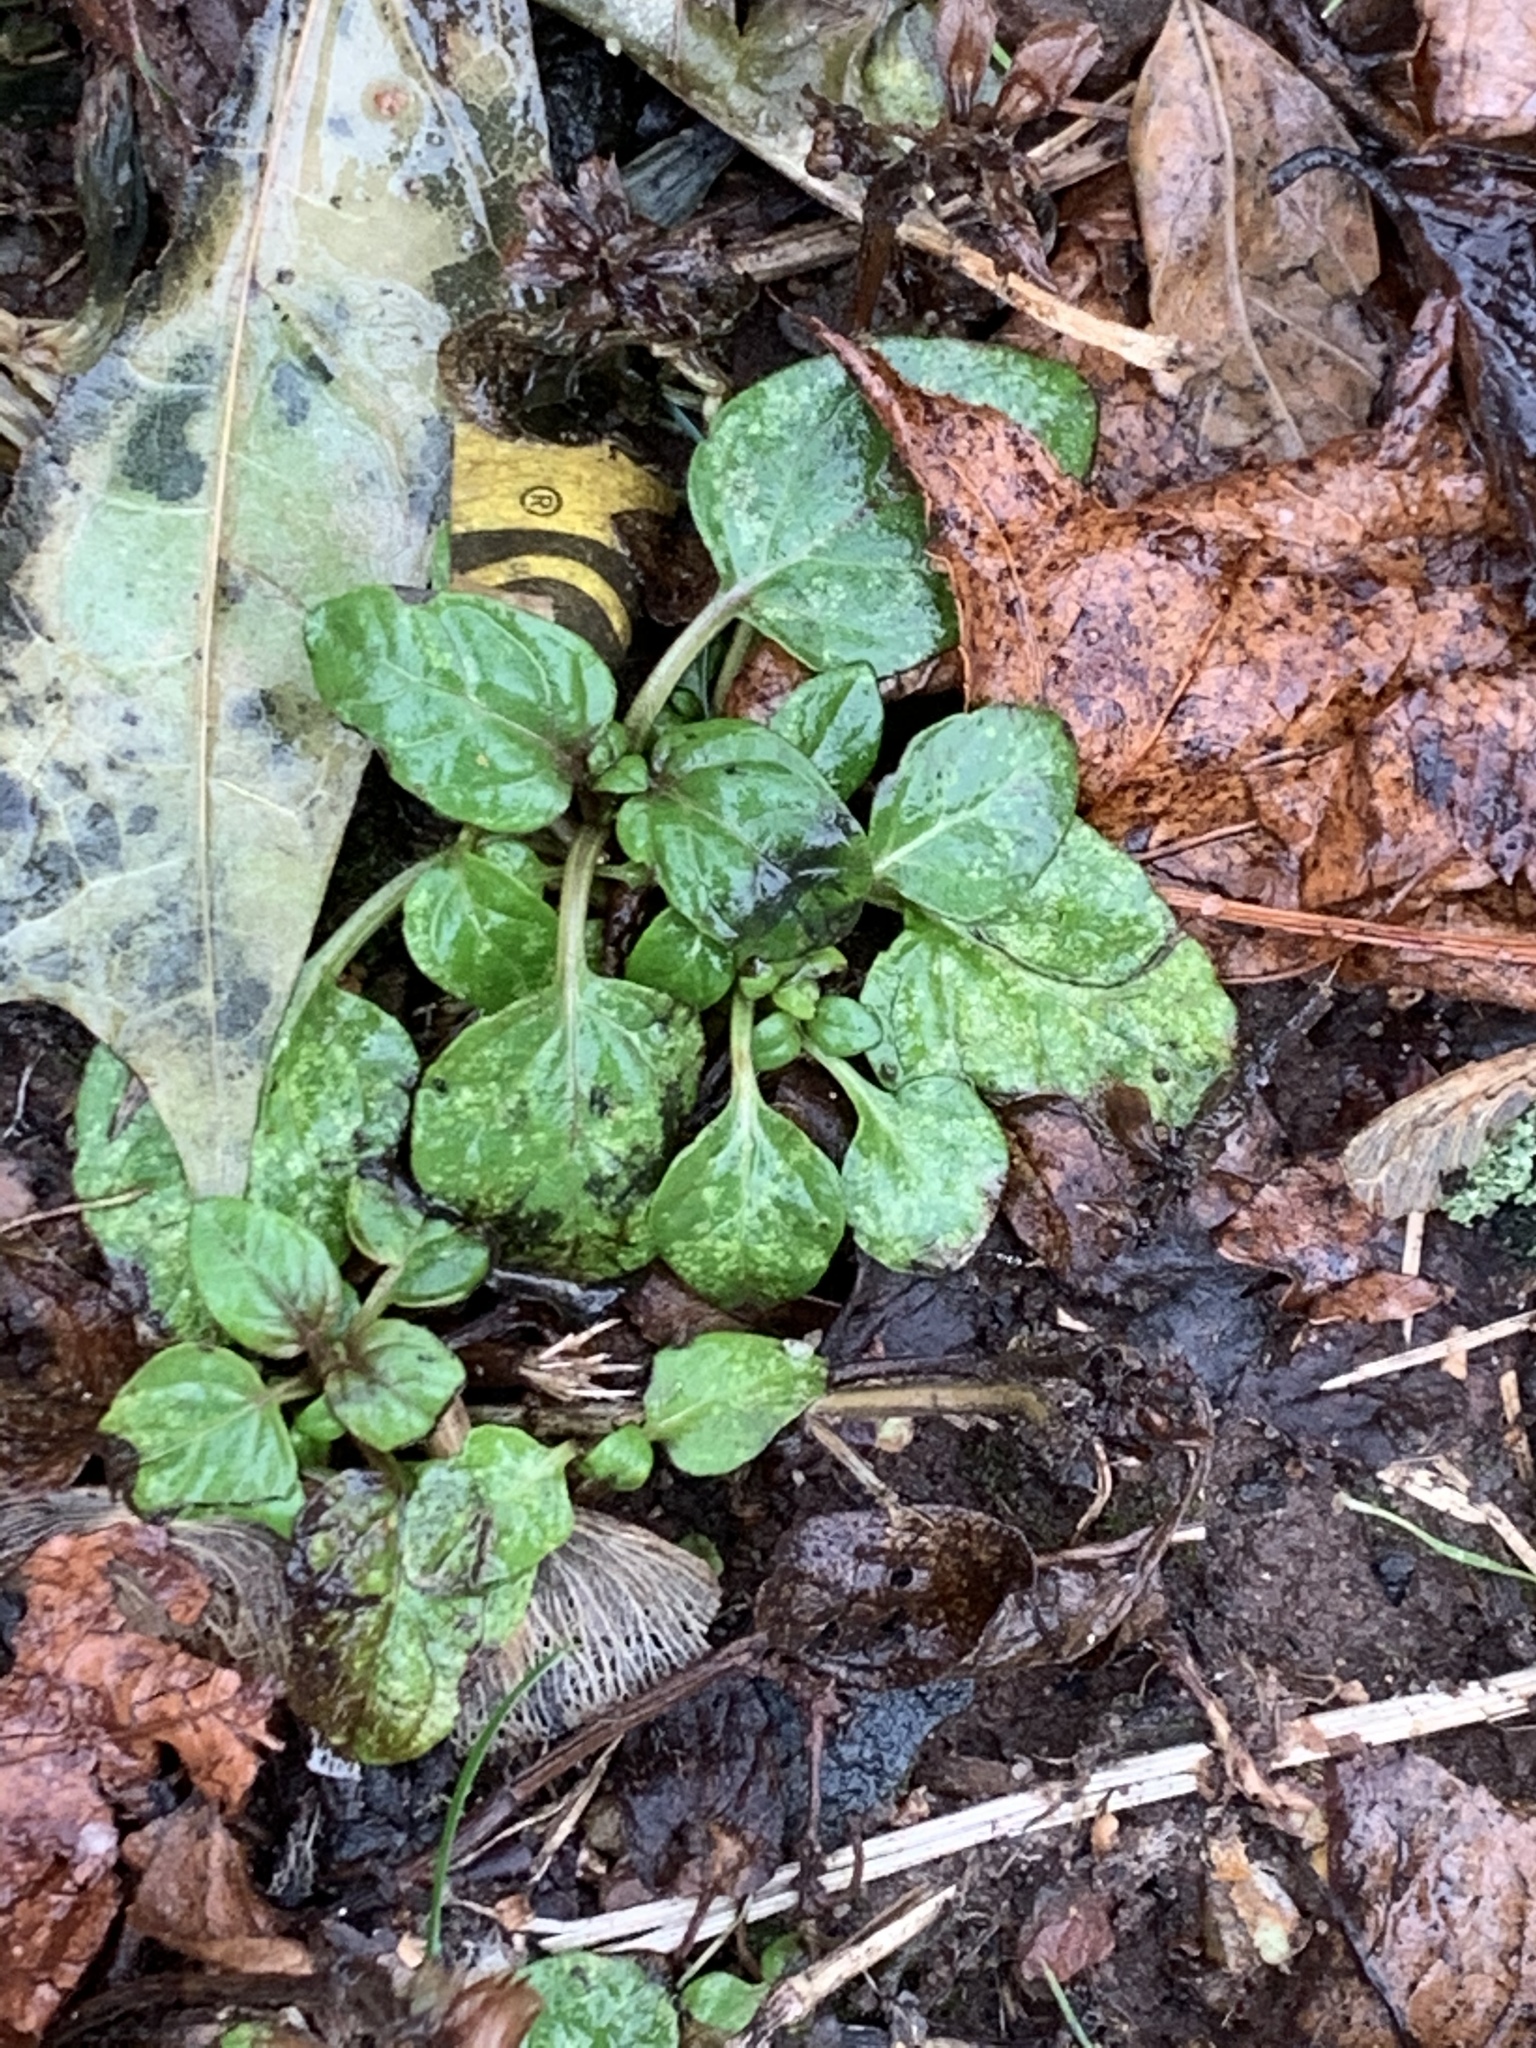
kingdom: Plantae
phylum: Tracheophyta
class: Magnoliopsida
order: Lamiales
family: Lamiaceae
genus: Prunella
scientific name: Prunella vulgaris
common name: Heal-all
